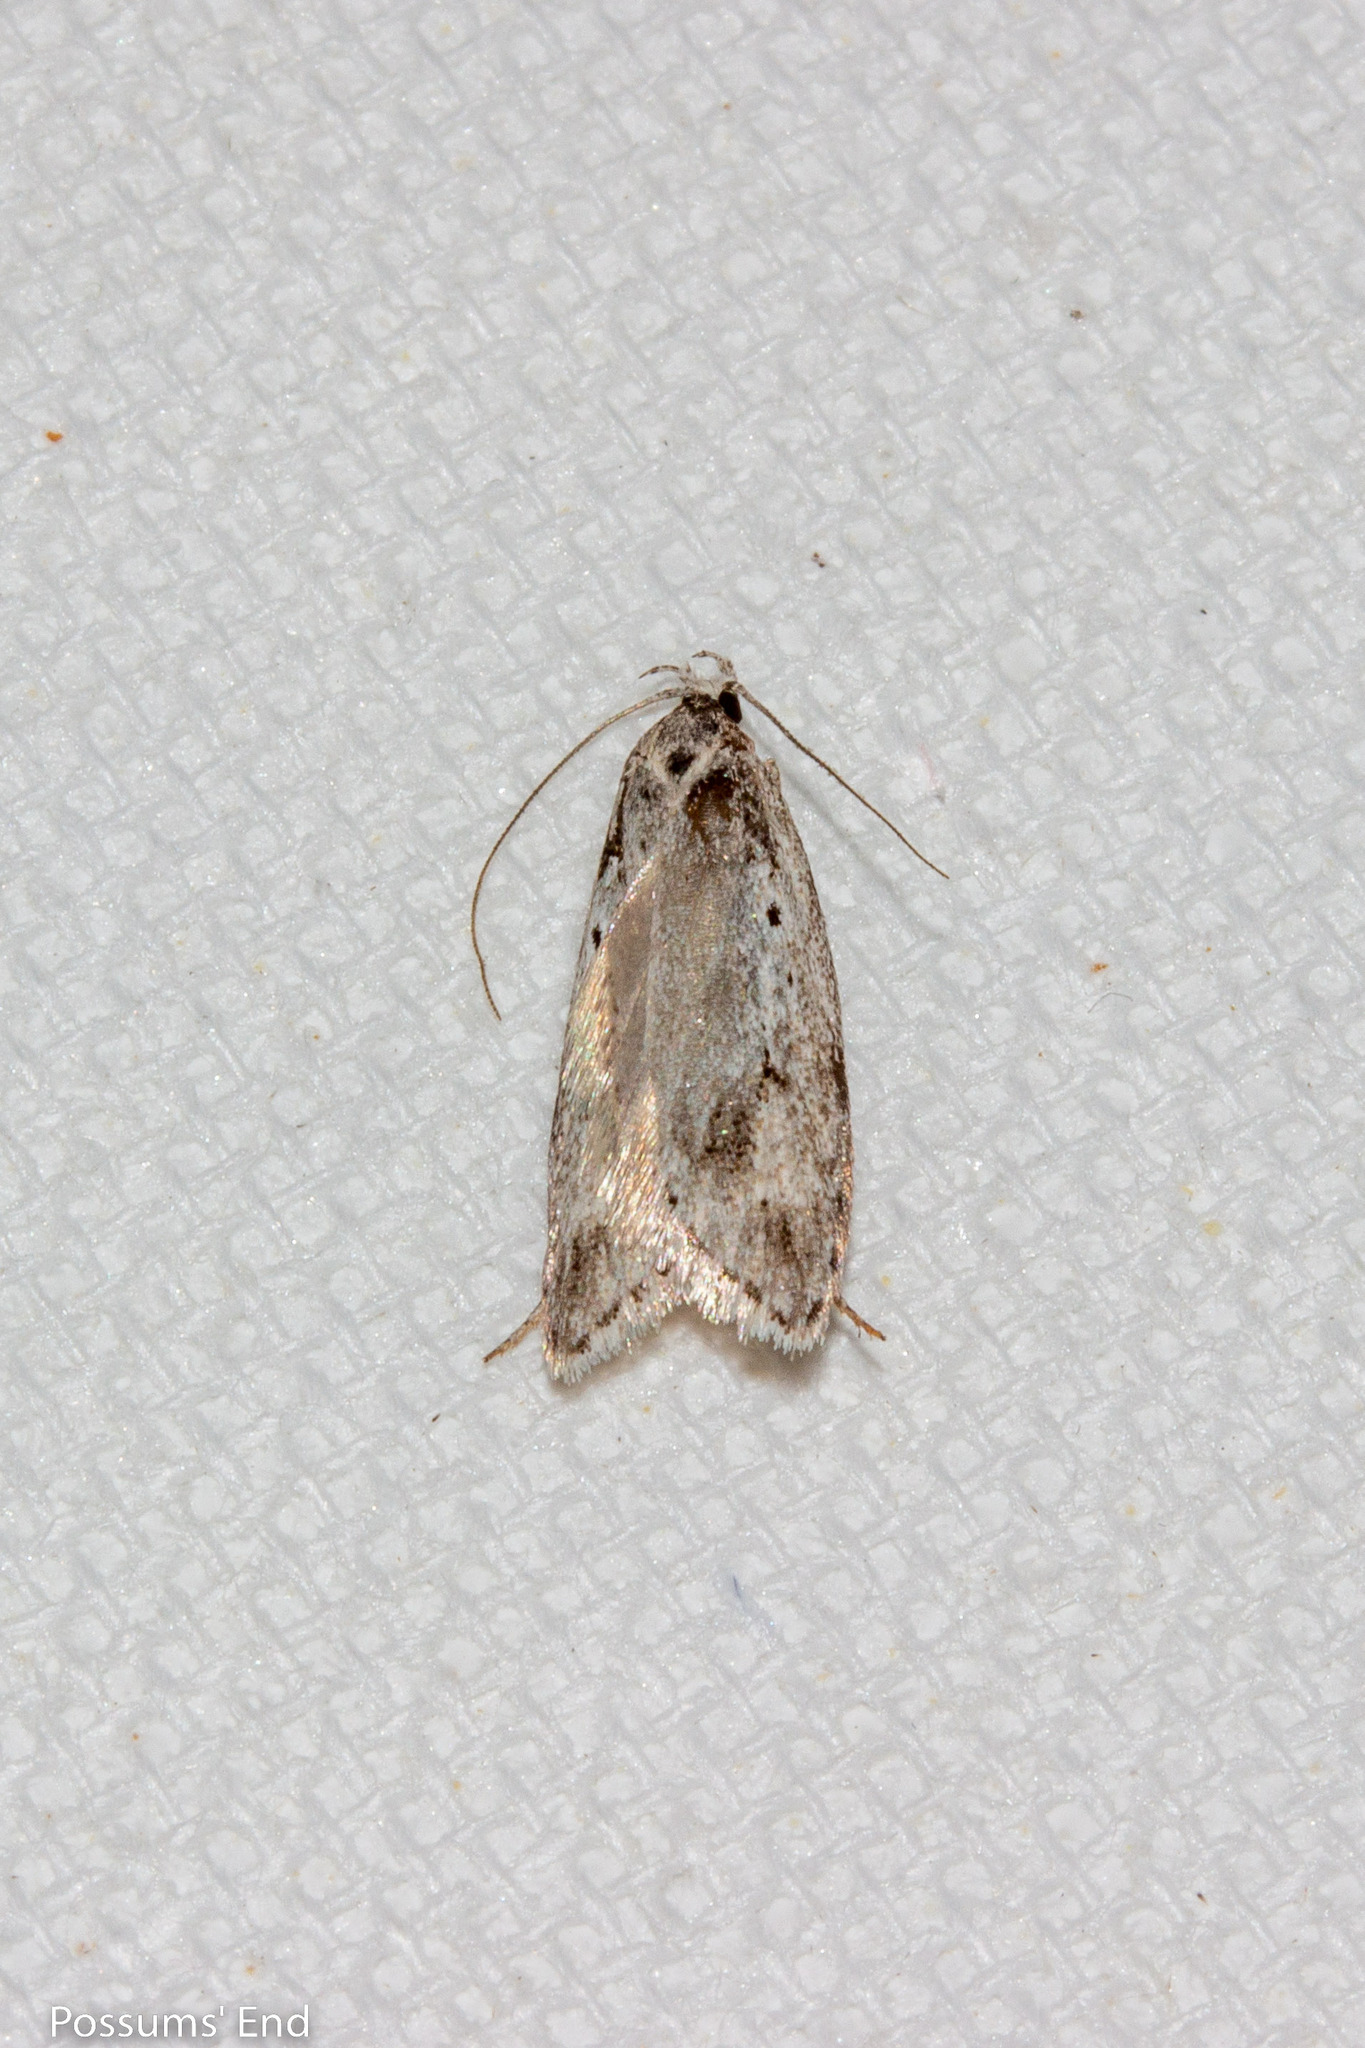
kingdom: Animalia
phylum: Arthropoda
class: Insecta
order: Lepidoptera
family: Oecophoridae
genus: Izatha
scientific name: Izatha psychra
